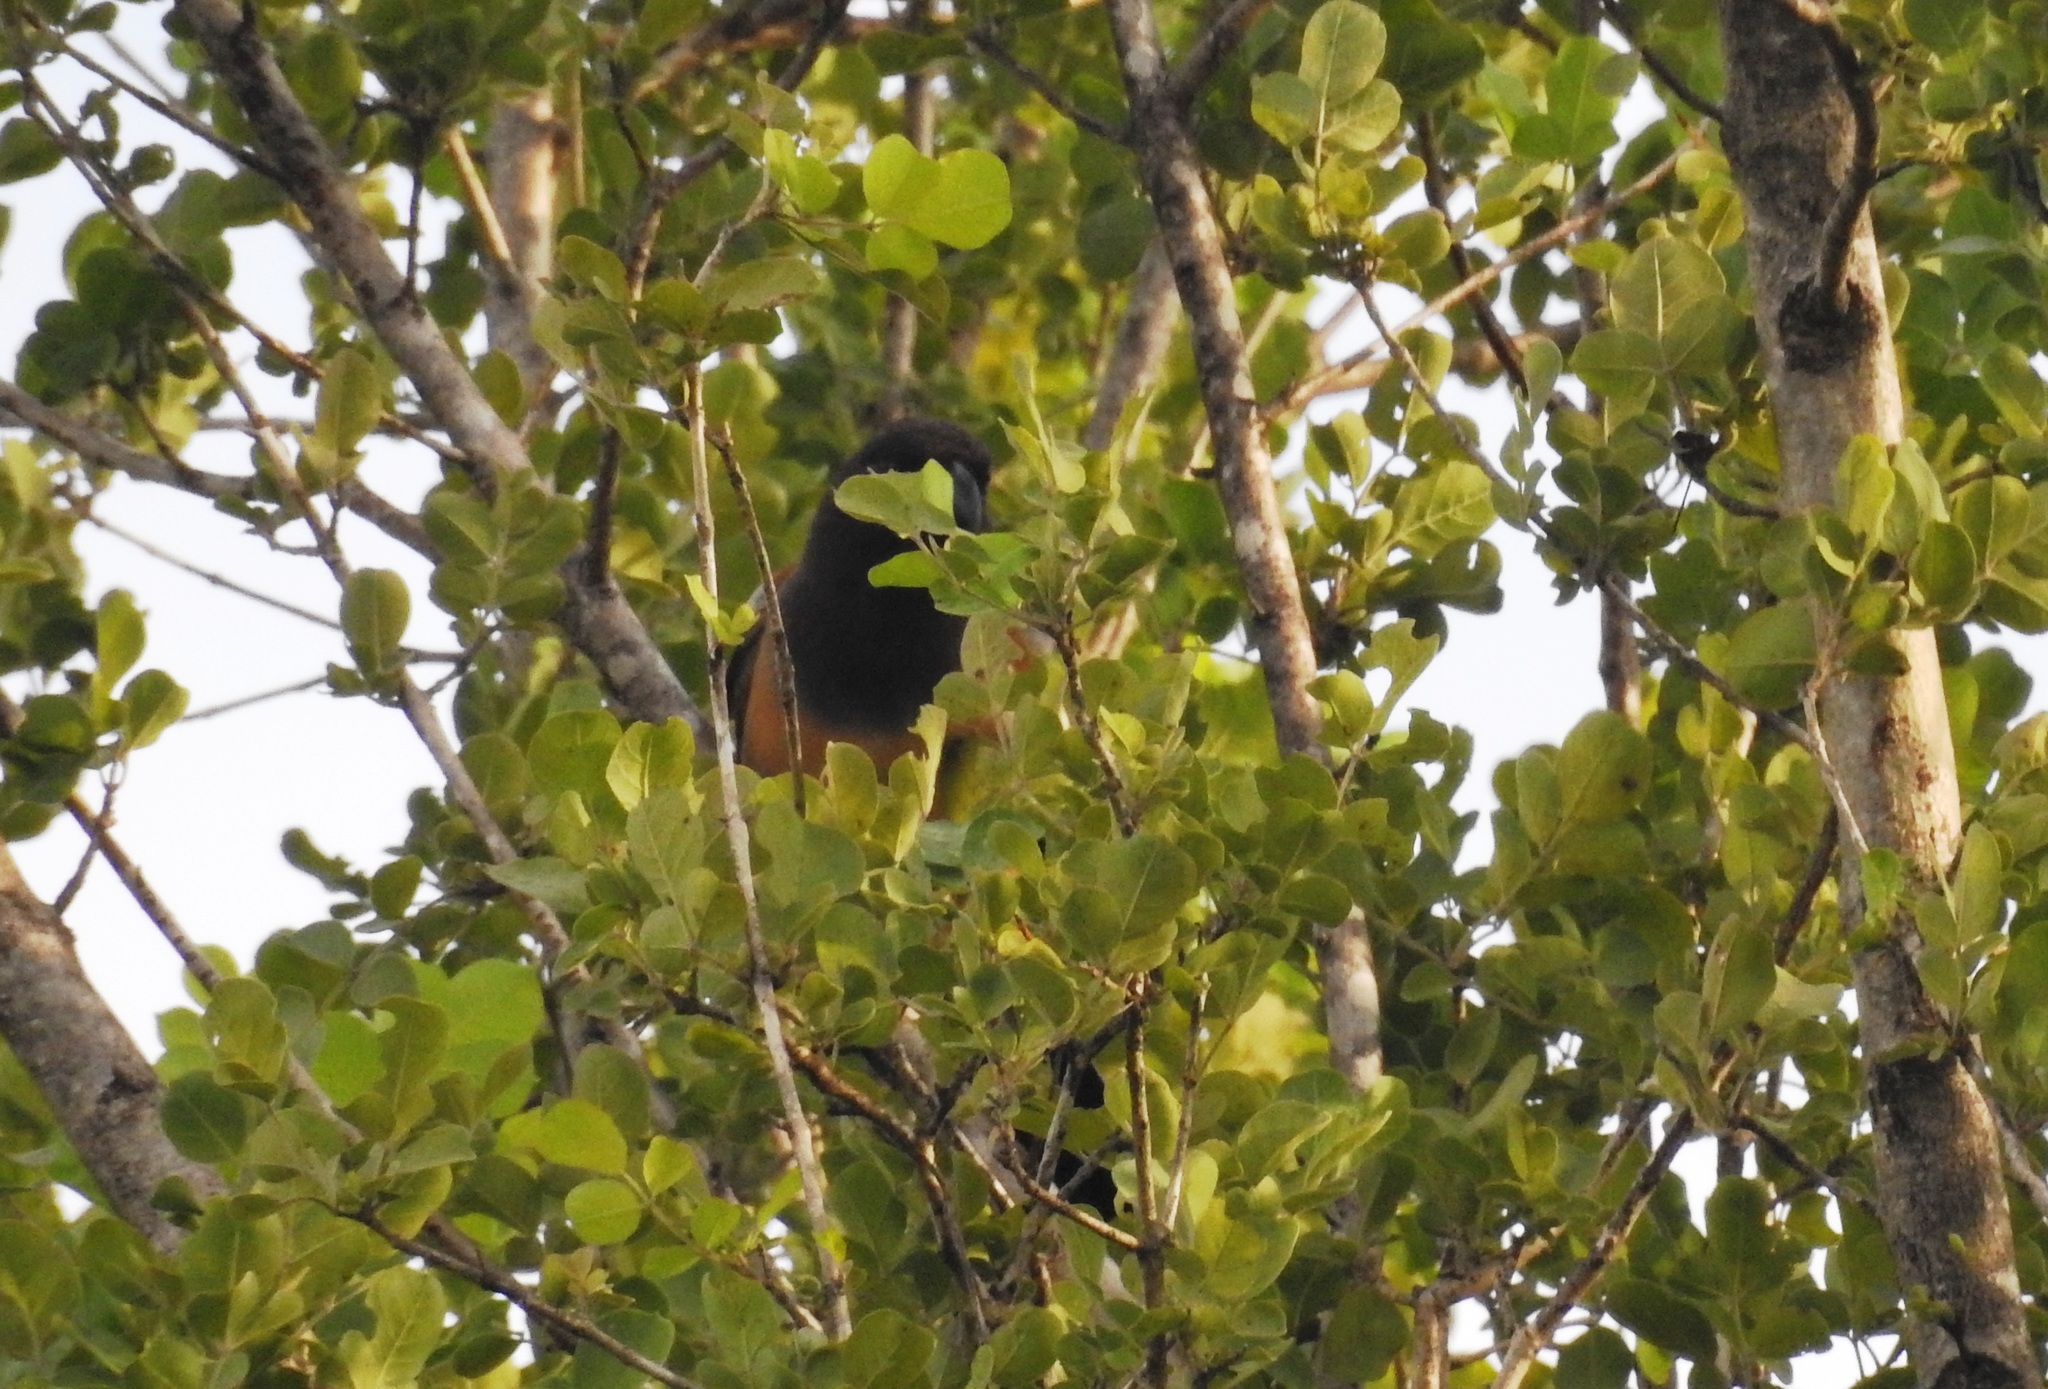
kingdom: Animalia
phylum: Chordata
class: Aves
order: Passeriformes
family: Corvidae
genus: Dendrocitta
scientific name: Dendrocitta vagabunda
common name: Rufous treepie
